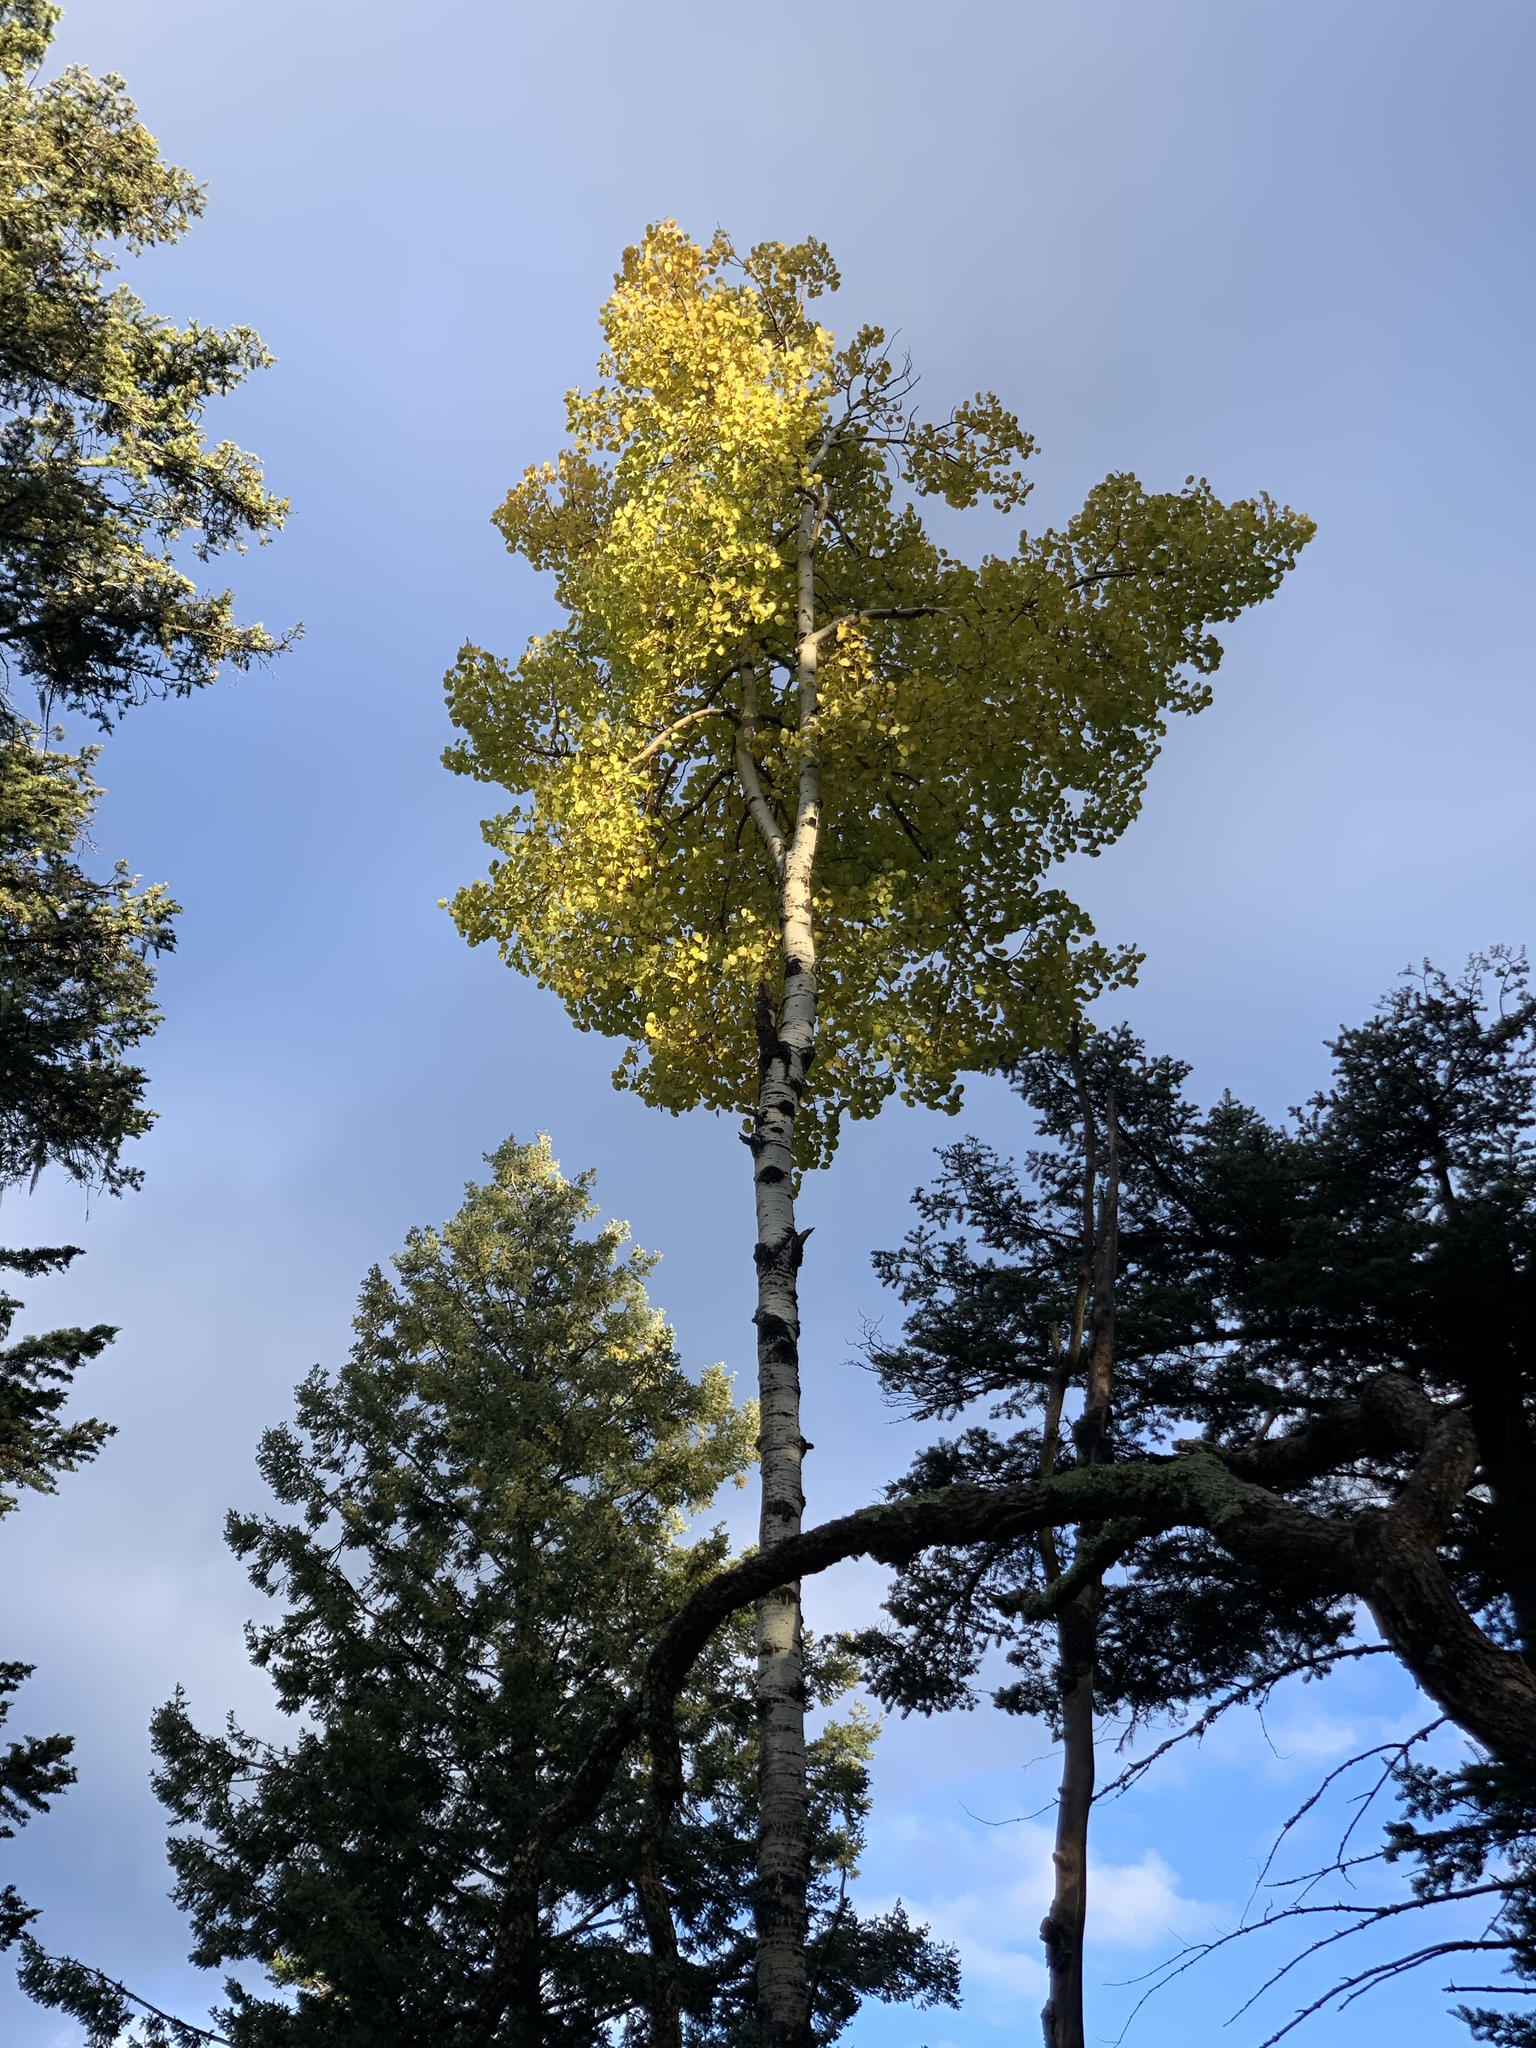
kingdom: Plantae
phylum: Tracheophyta
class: Magnoliopsida
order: Malpighiales
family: Salicaceae
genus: Populus
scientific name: Populus tremuloides
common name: Quaking aspen
